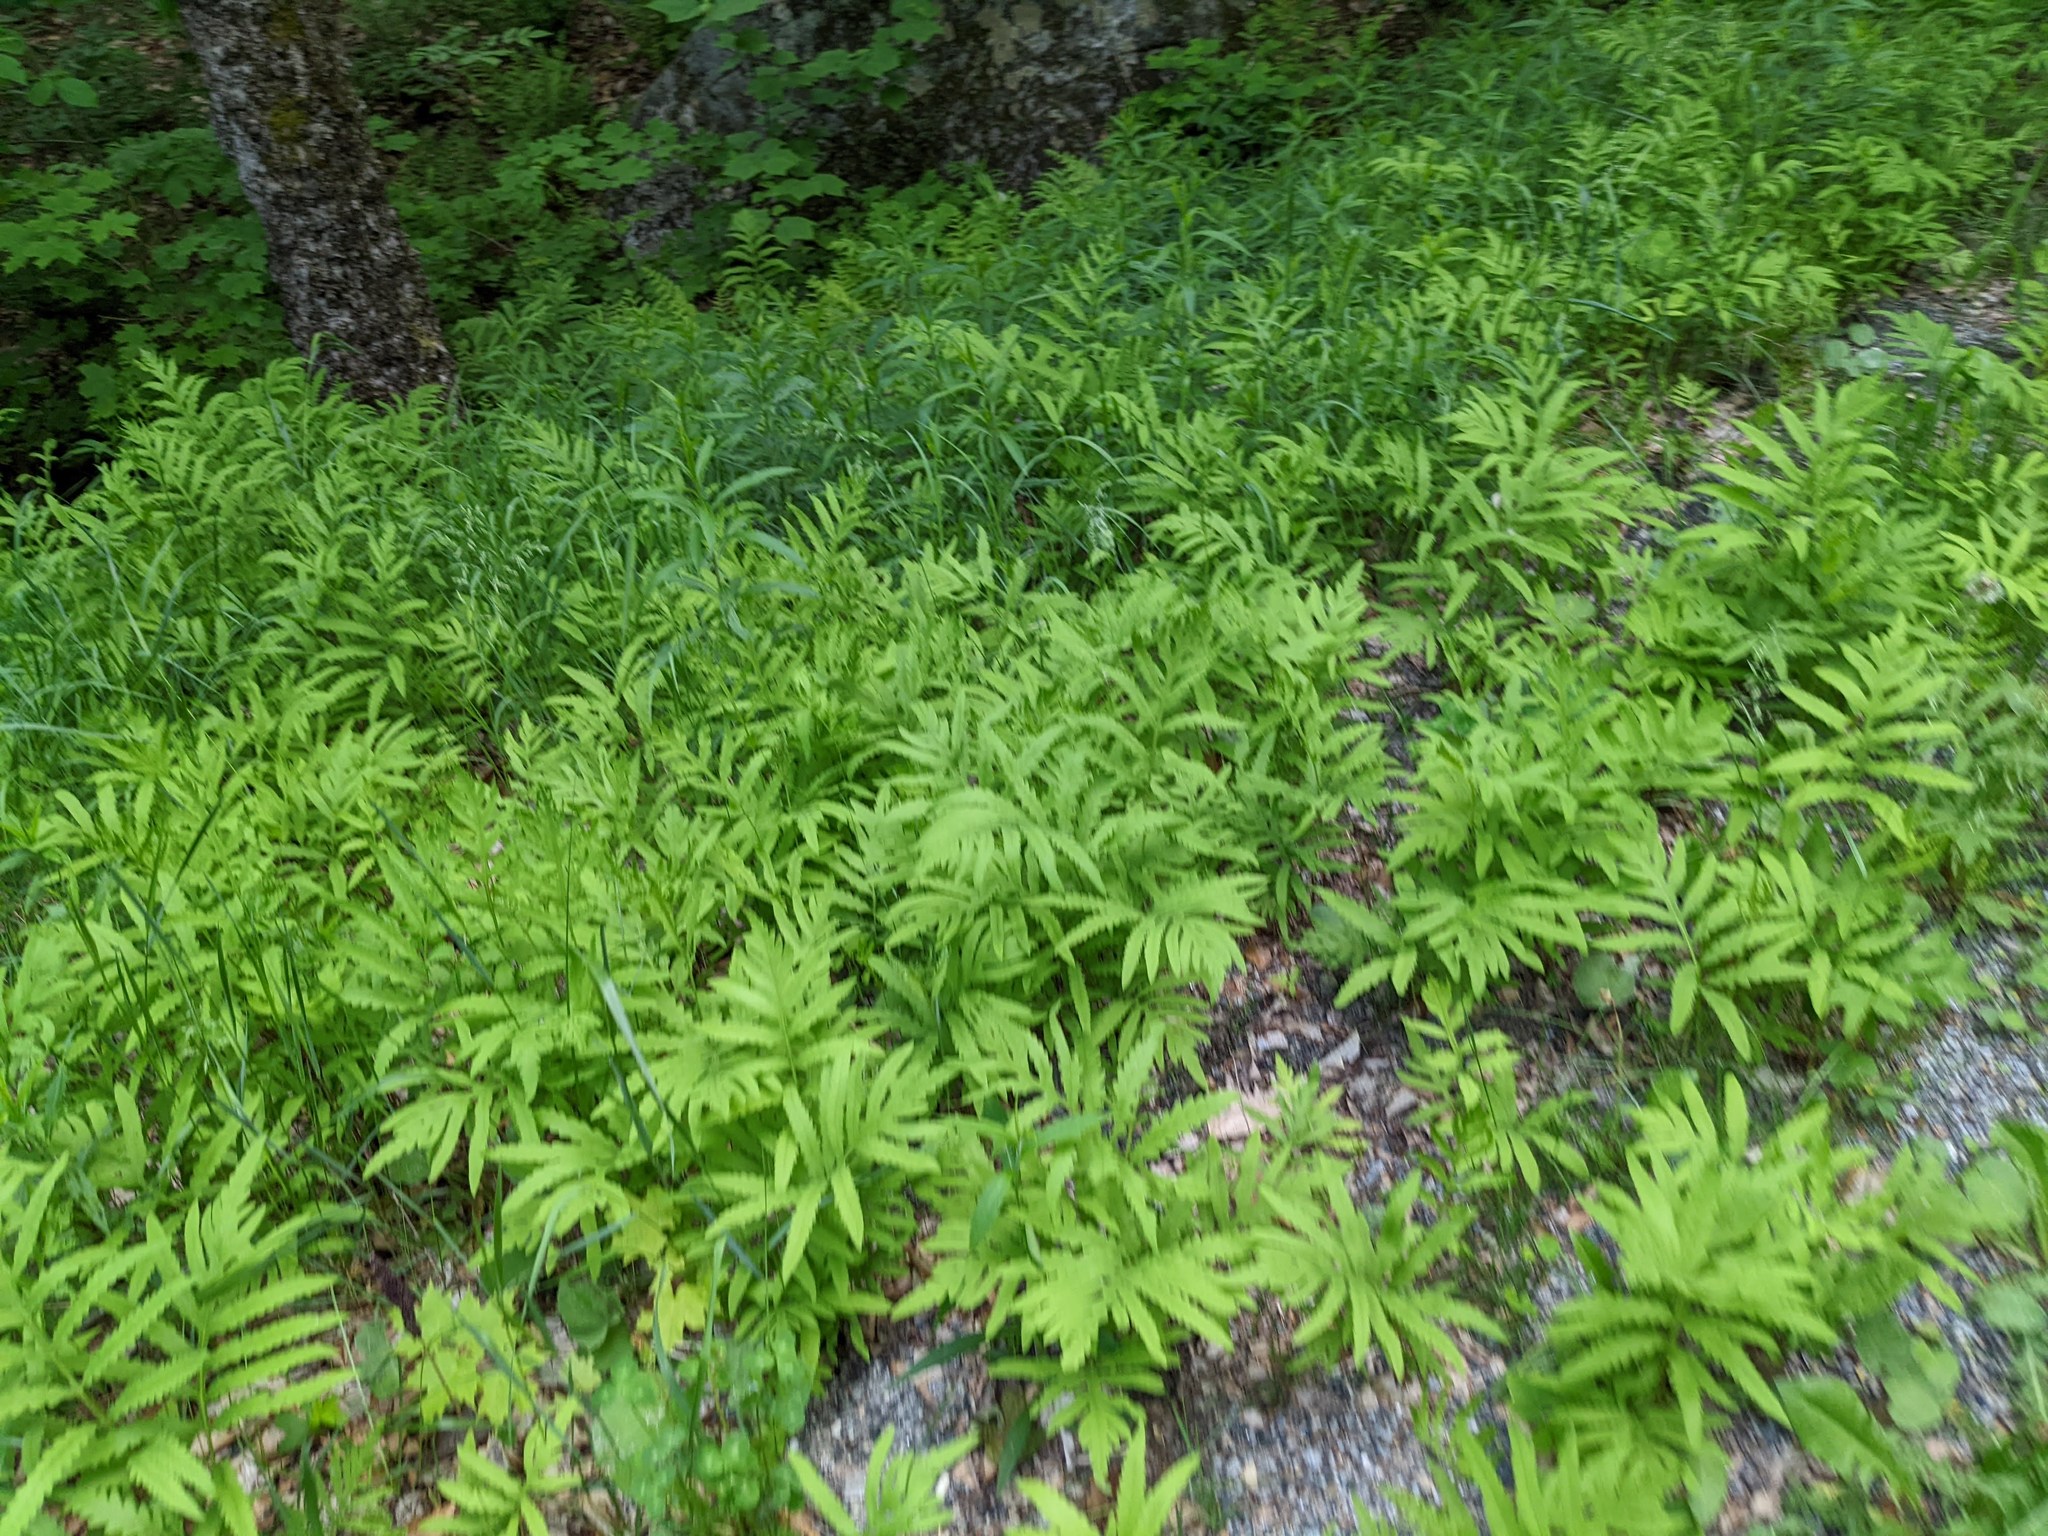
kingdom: Plantae
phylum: Tracheophyta
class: Polypodiopsida
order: Polypodiales
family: Onocleaceae
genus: Onoclea
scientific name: Onoclea sensibilis
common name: Sensitive fern
